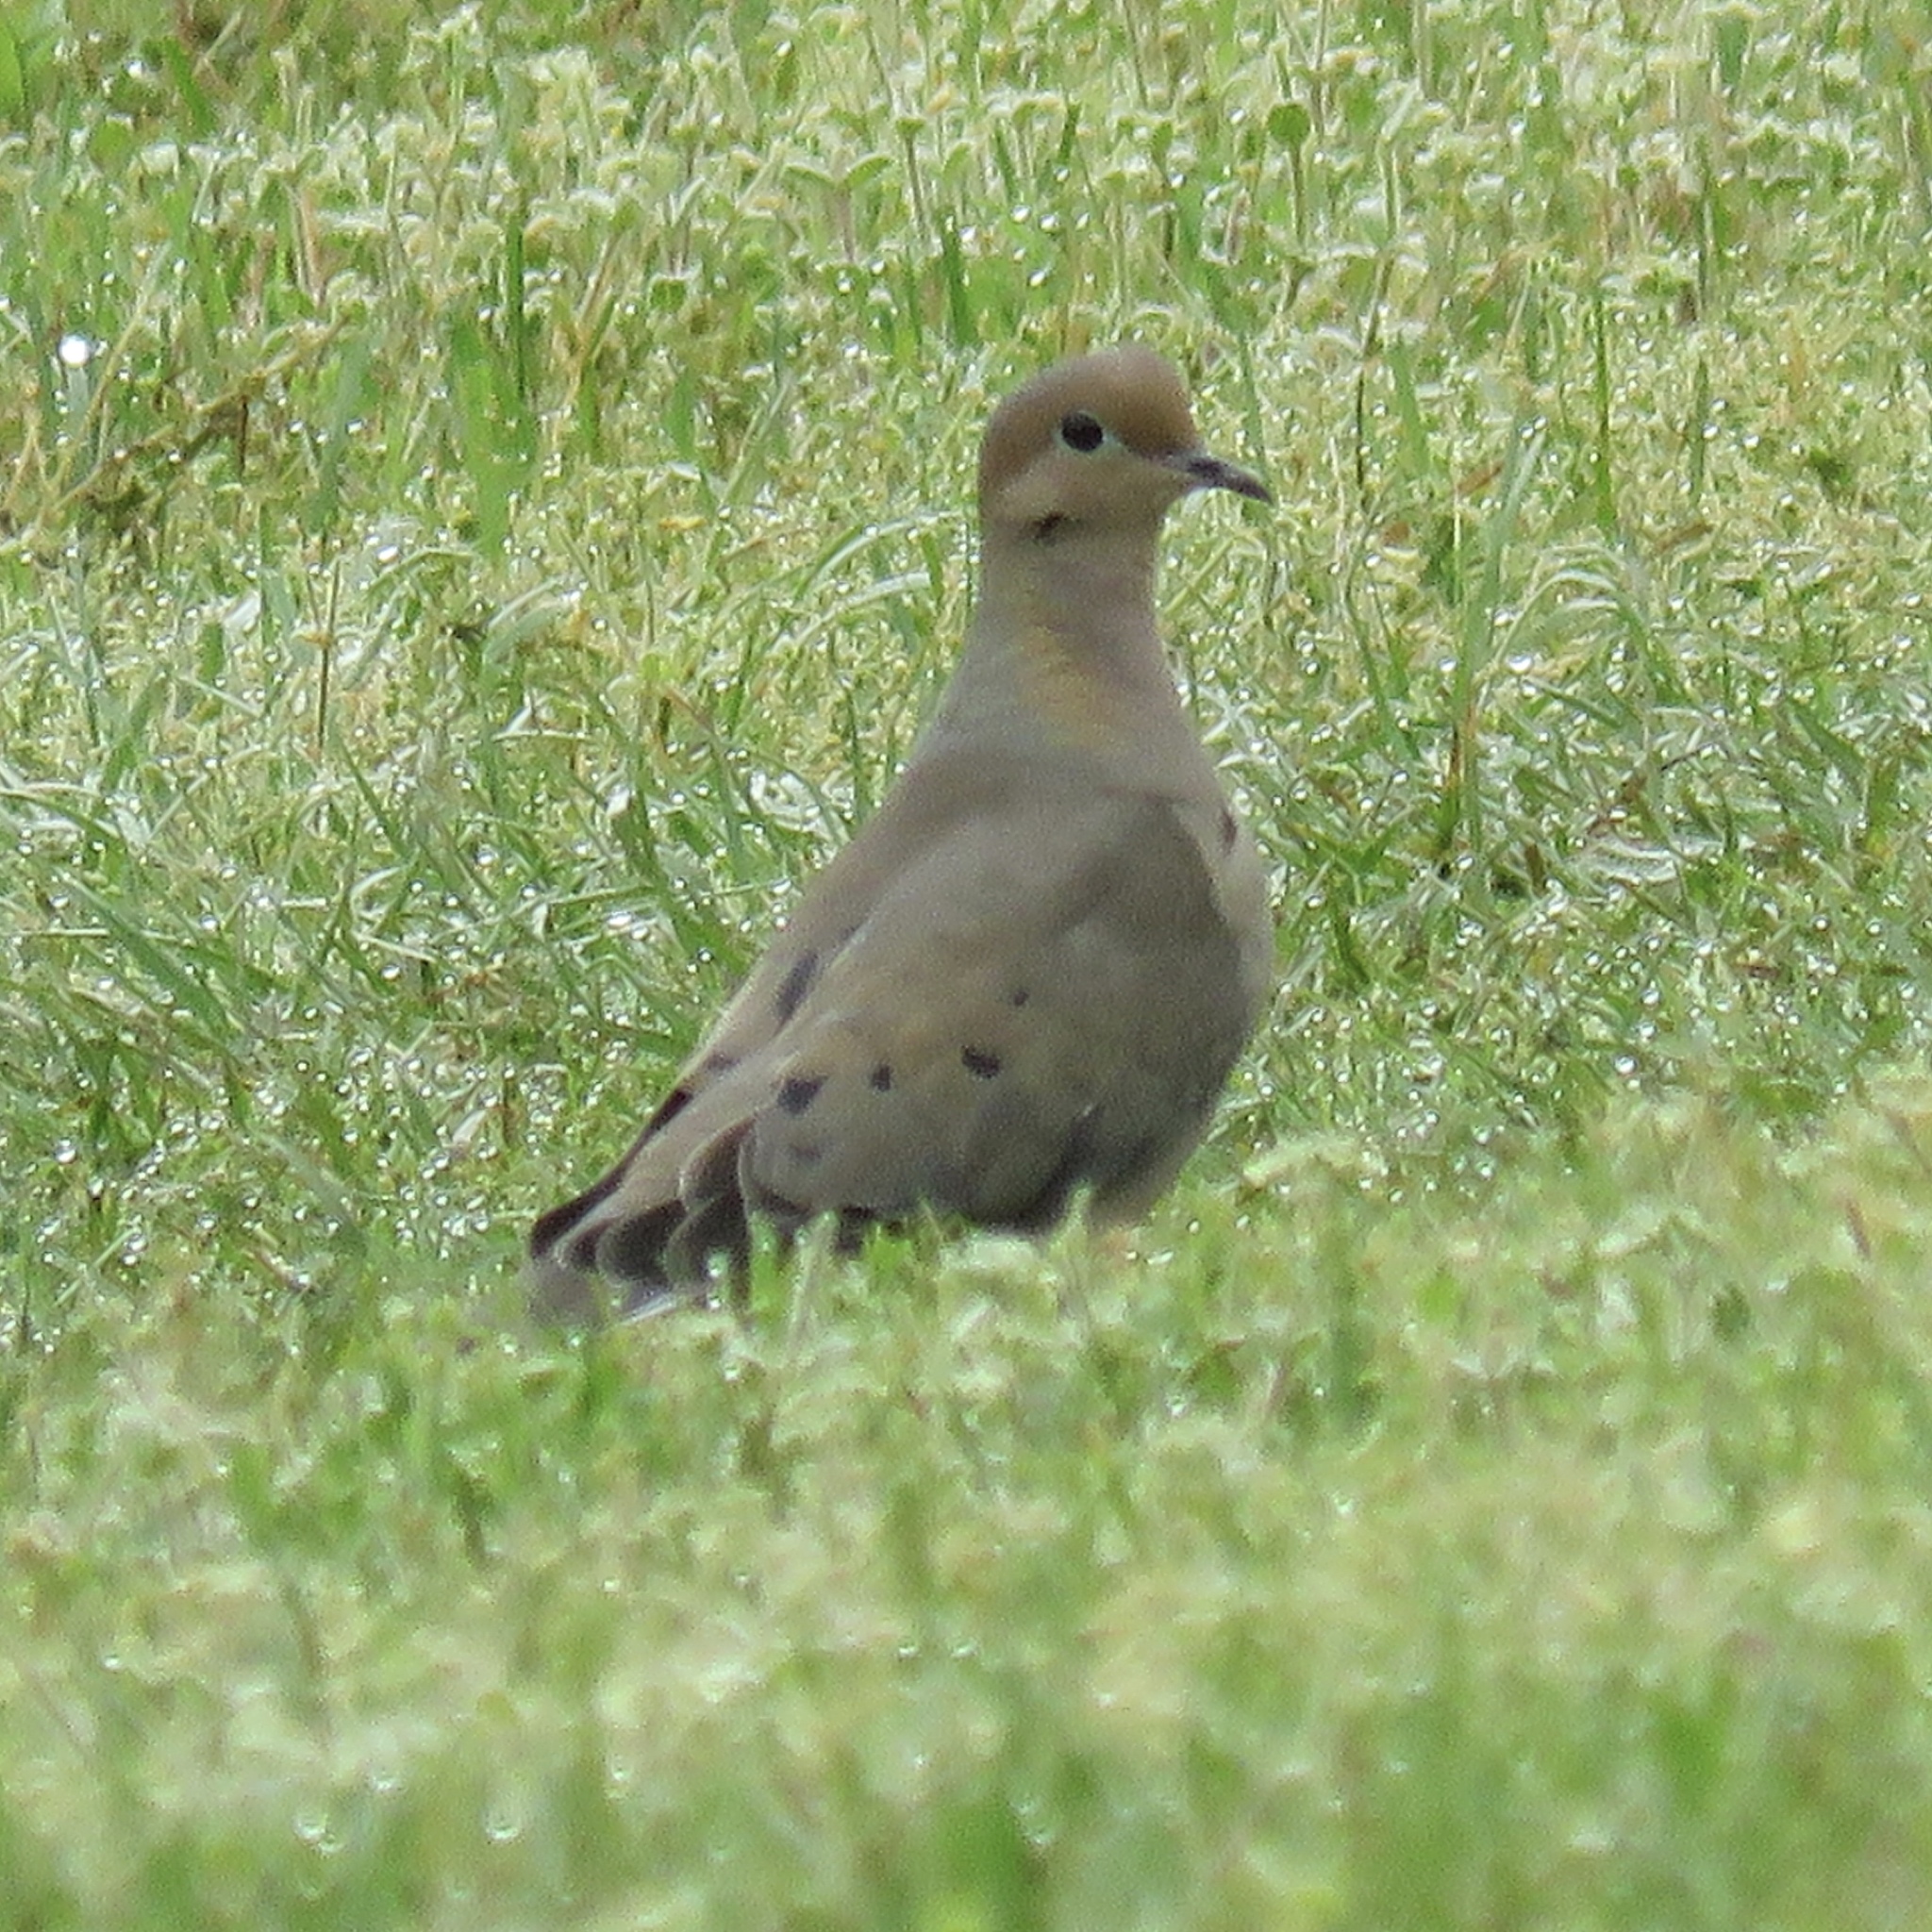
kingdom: Animalia
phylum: Chordata
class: Aves
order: Columbiformes
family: Columbidae
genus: Zenaida
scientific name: Zenaida macroura
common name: Mourning dove
